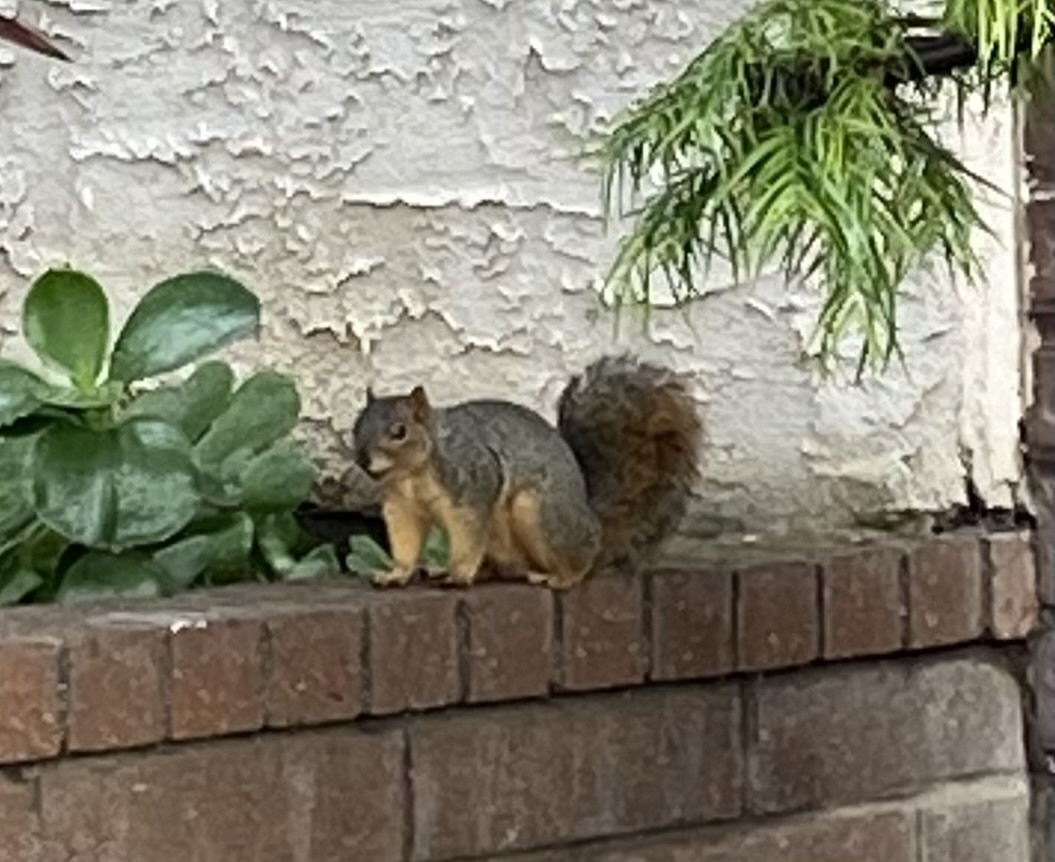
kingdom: Animalia
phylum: Chordata
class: Mammalia
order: Rodentia
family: Sciuridae
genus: Sciurus
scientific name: Sciurus niger
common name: Fox squirrel
